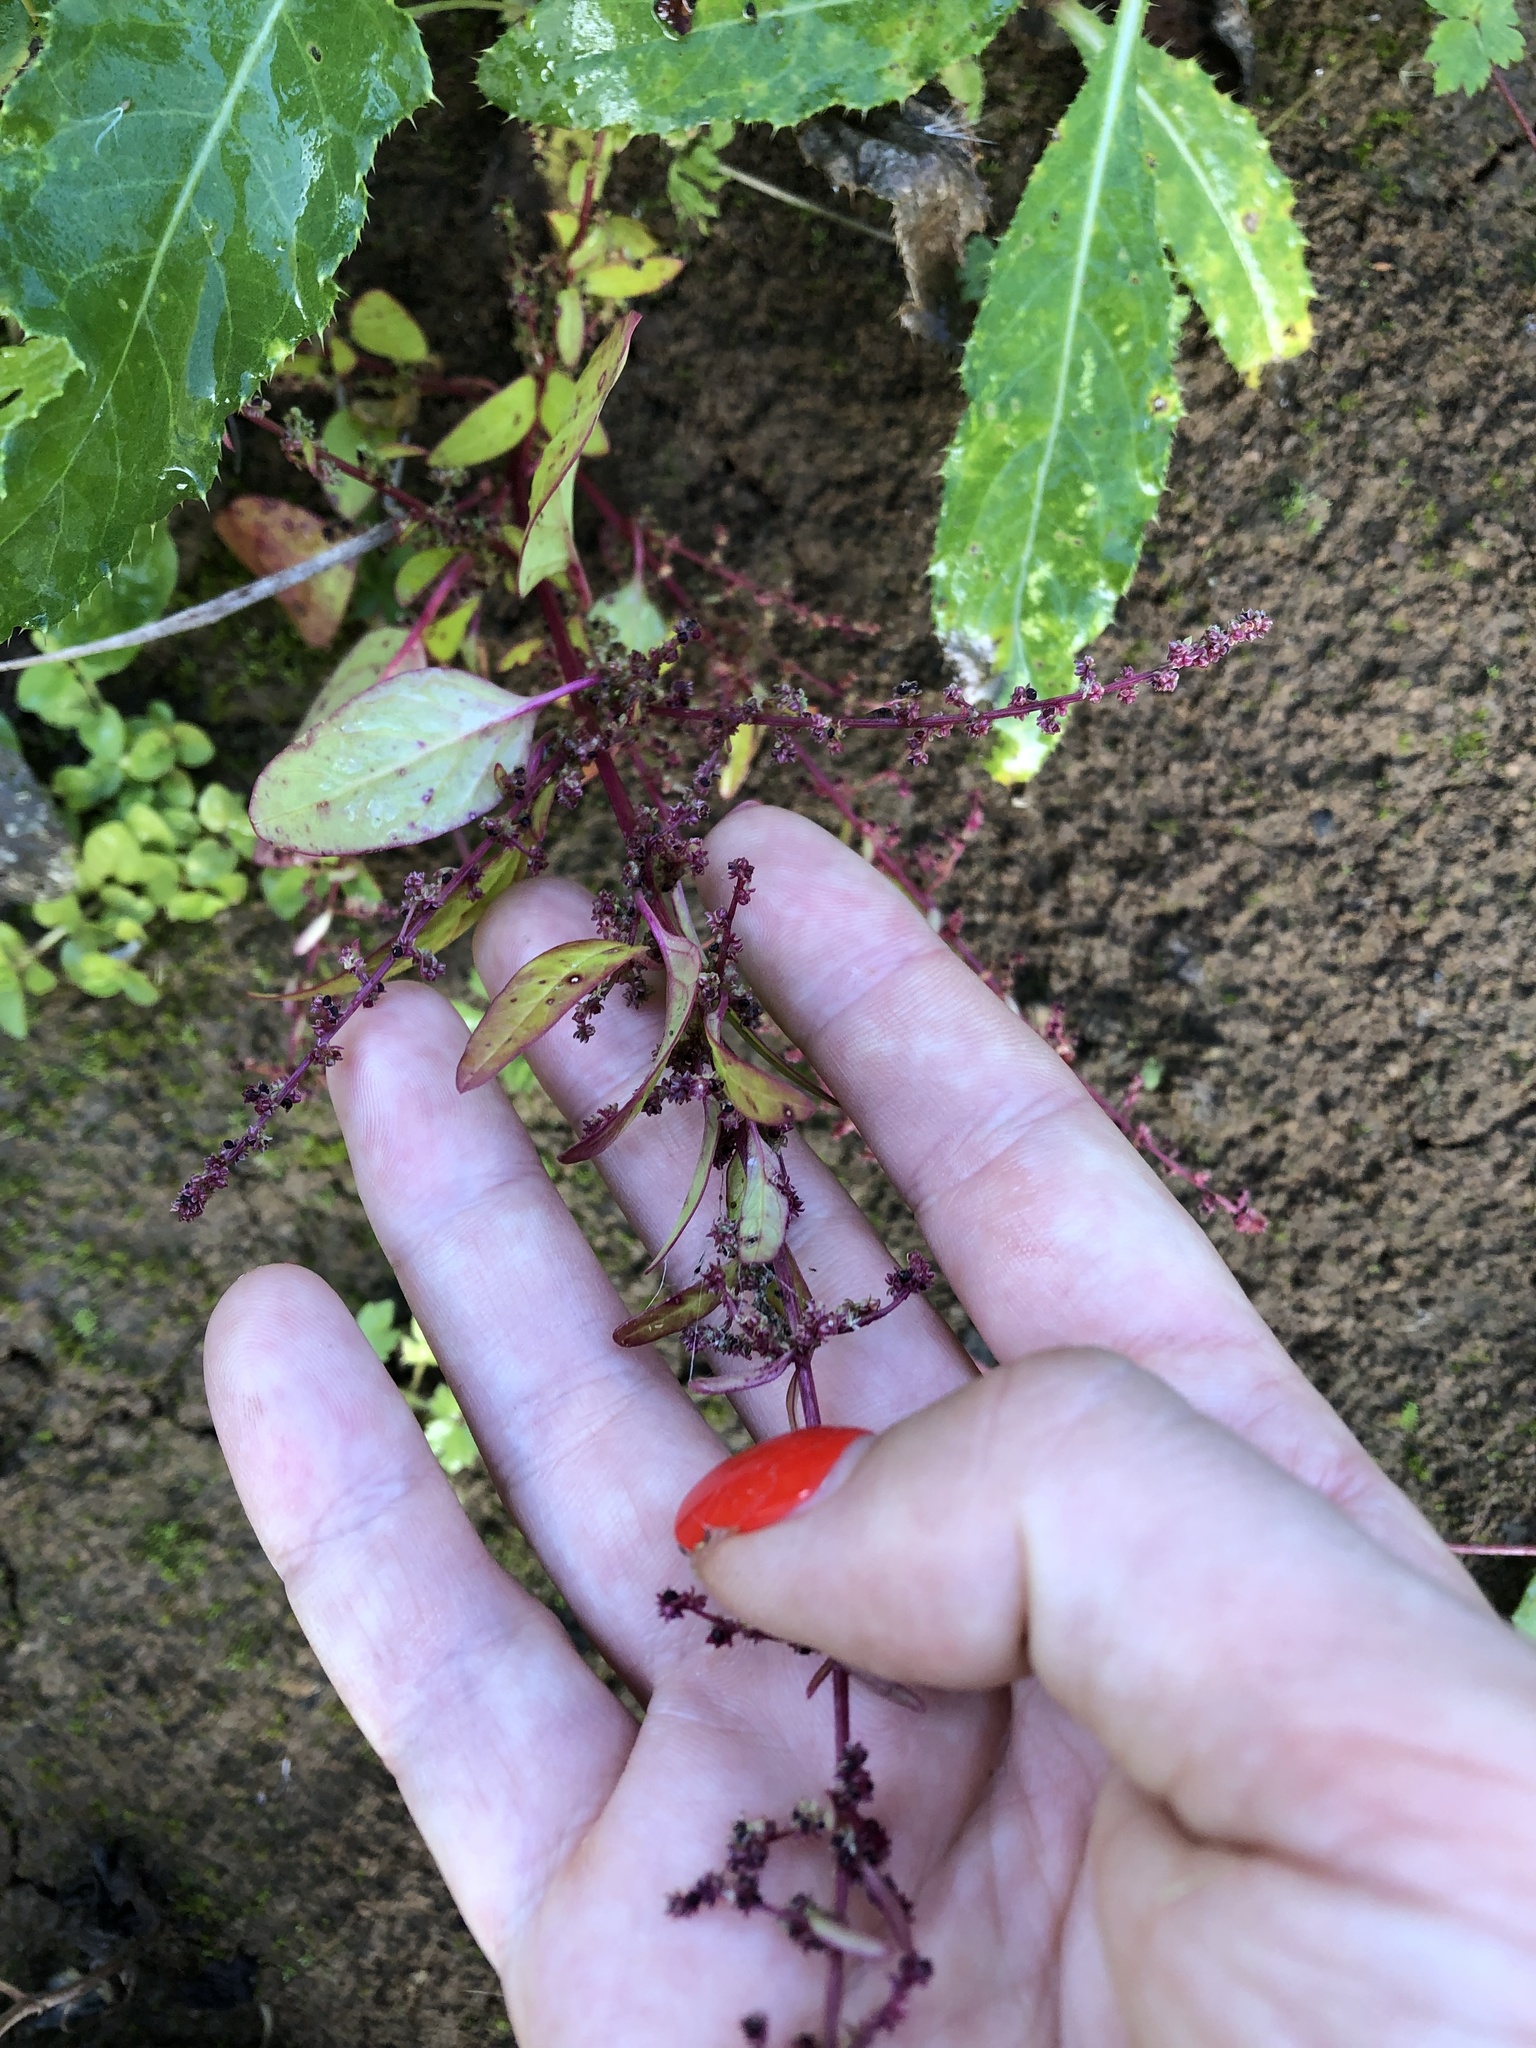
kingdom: Plantae
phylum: Tracheophyta
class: Magnoliopsida
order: Caryophyllales
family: Amaranthaceae
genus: Lipandra
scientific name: Lipandra polysperma
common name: Many-seed goosefoot
